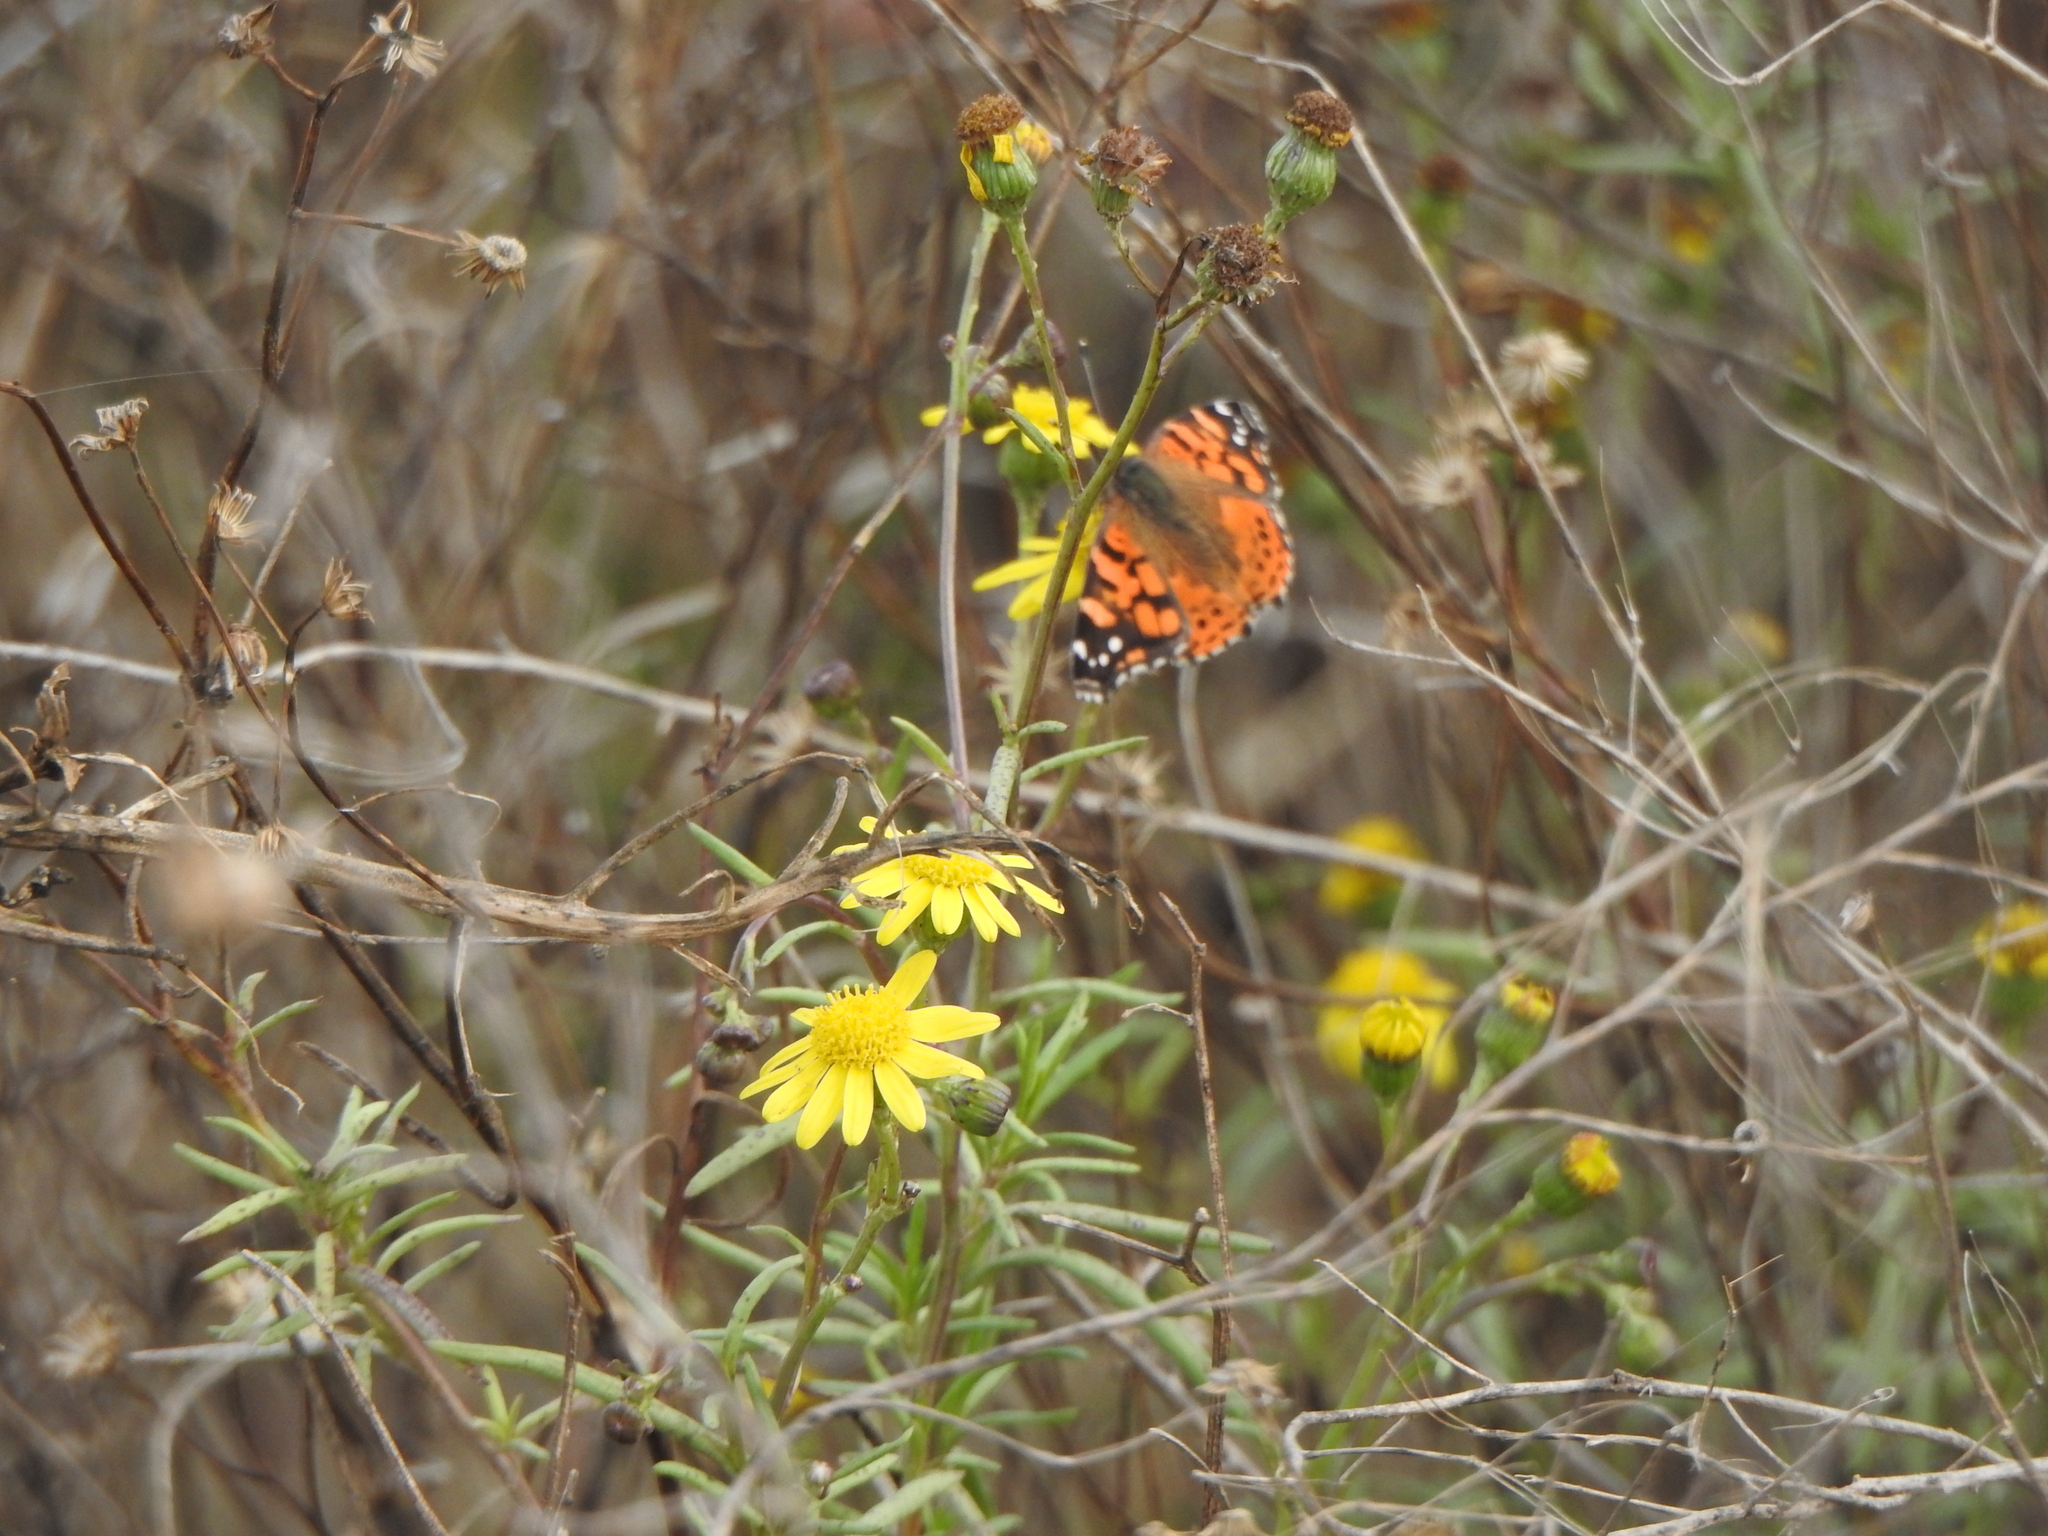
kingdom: Animalia
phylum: Arthropoda
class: Insecta
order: Lepidoptera
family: Nymphalidae
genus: Vanessa
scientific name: Vanessa carye
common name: Subtropical lady
